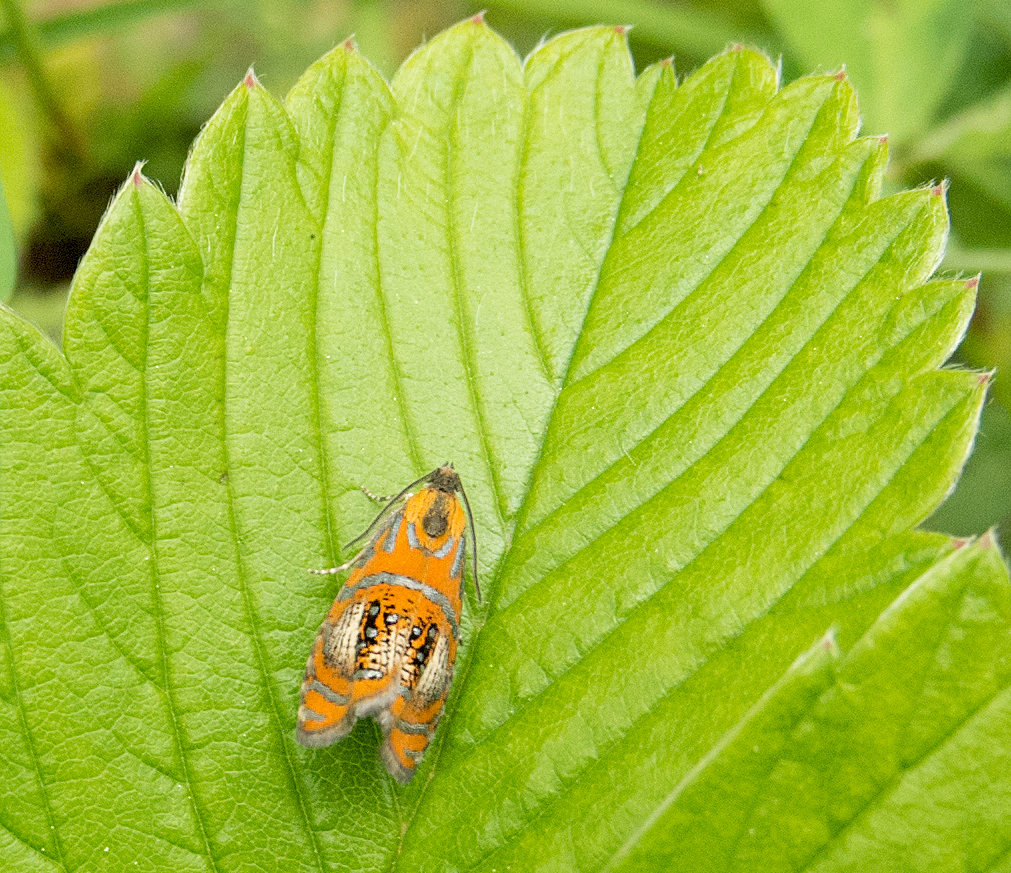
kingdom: Animalia
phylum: Arthropoda
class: Insecta
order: Lepidoptera
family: Tortricidae
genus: Olethreutes
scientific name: Olethreutes arcuella
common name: Arched marble
